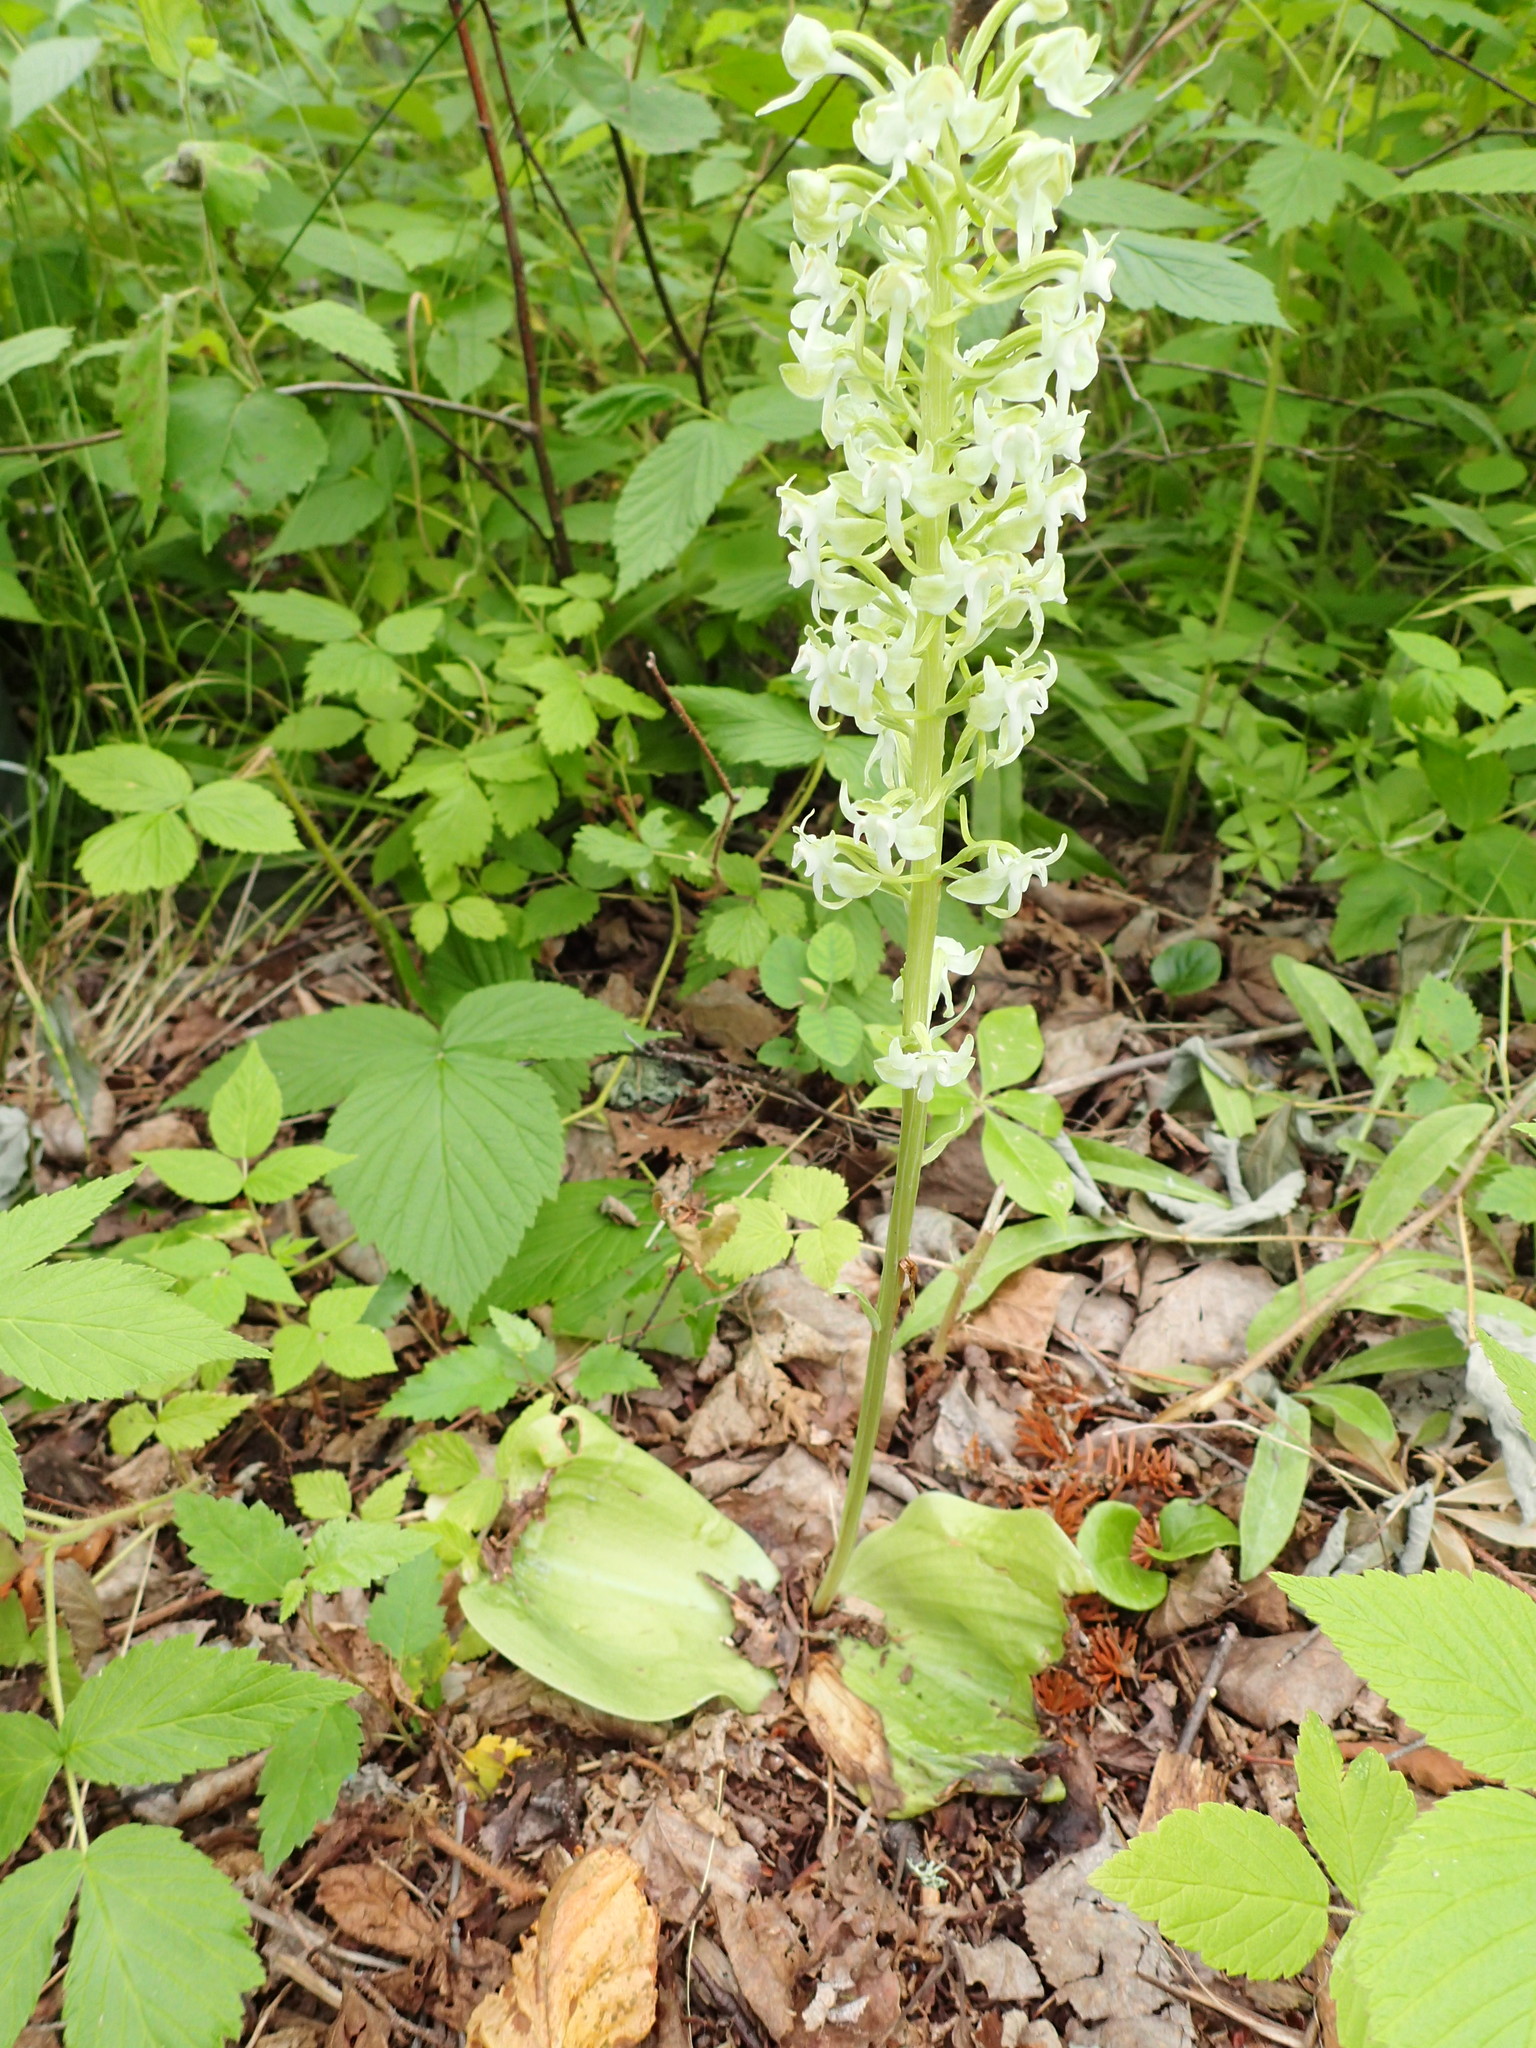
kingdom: Plantae
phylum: Tracheophyta
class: Liliopsida
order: Asparagales
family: Orchidaceae
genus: Platanthera
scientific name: Platanthera orbiculata
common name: Large round-leaved orchid
